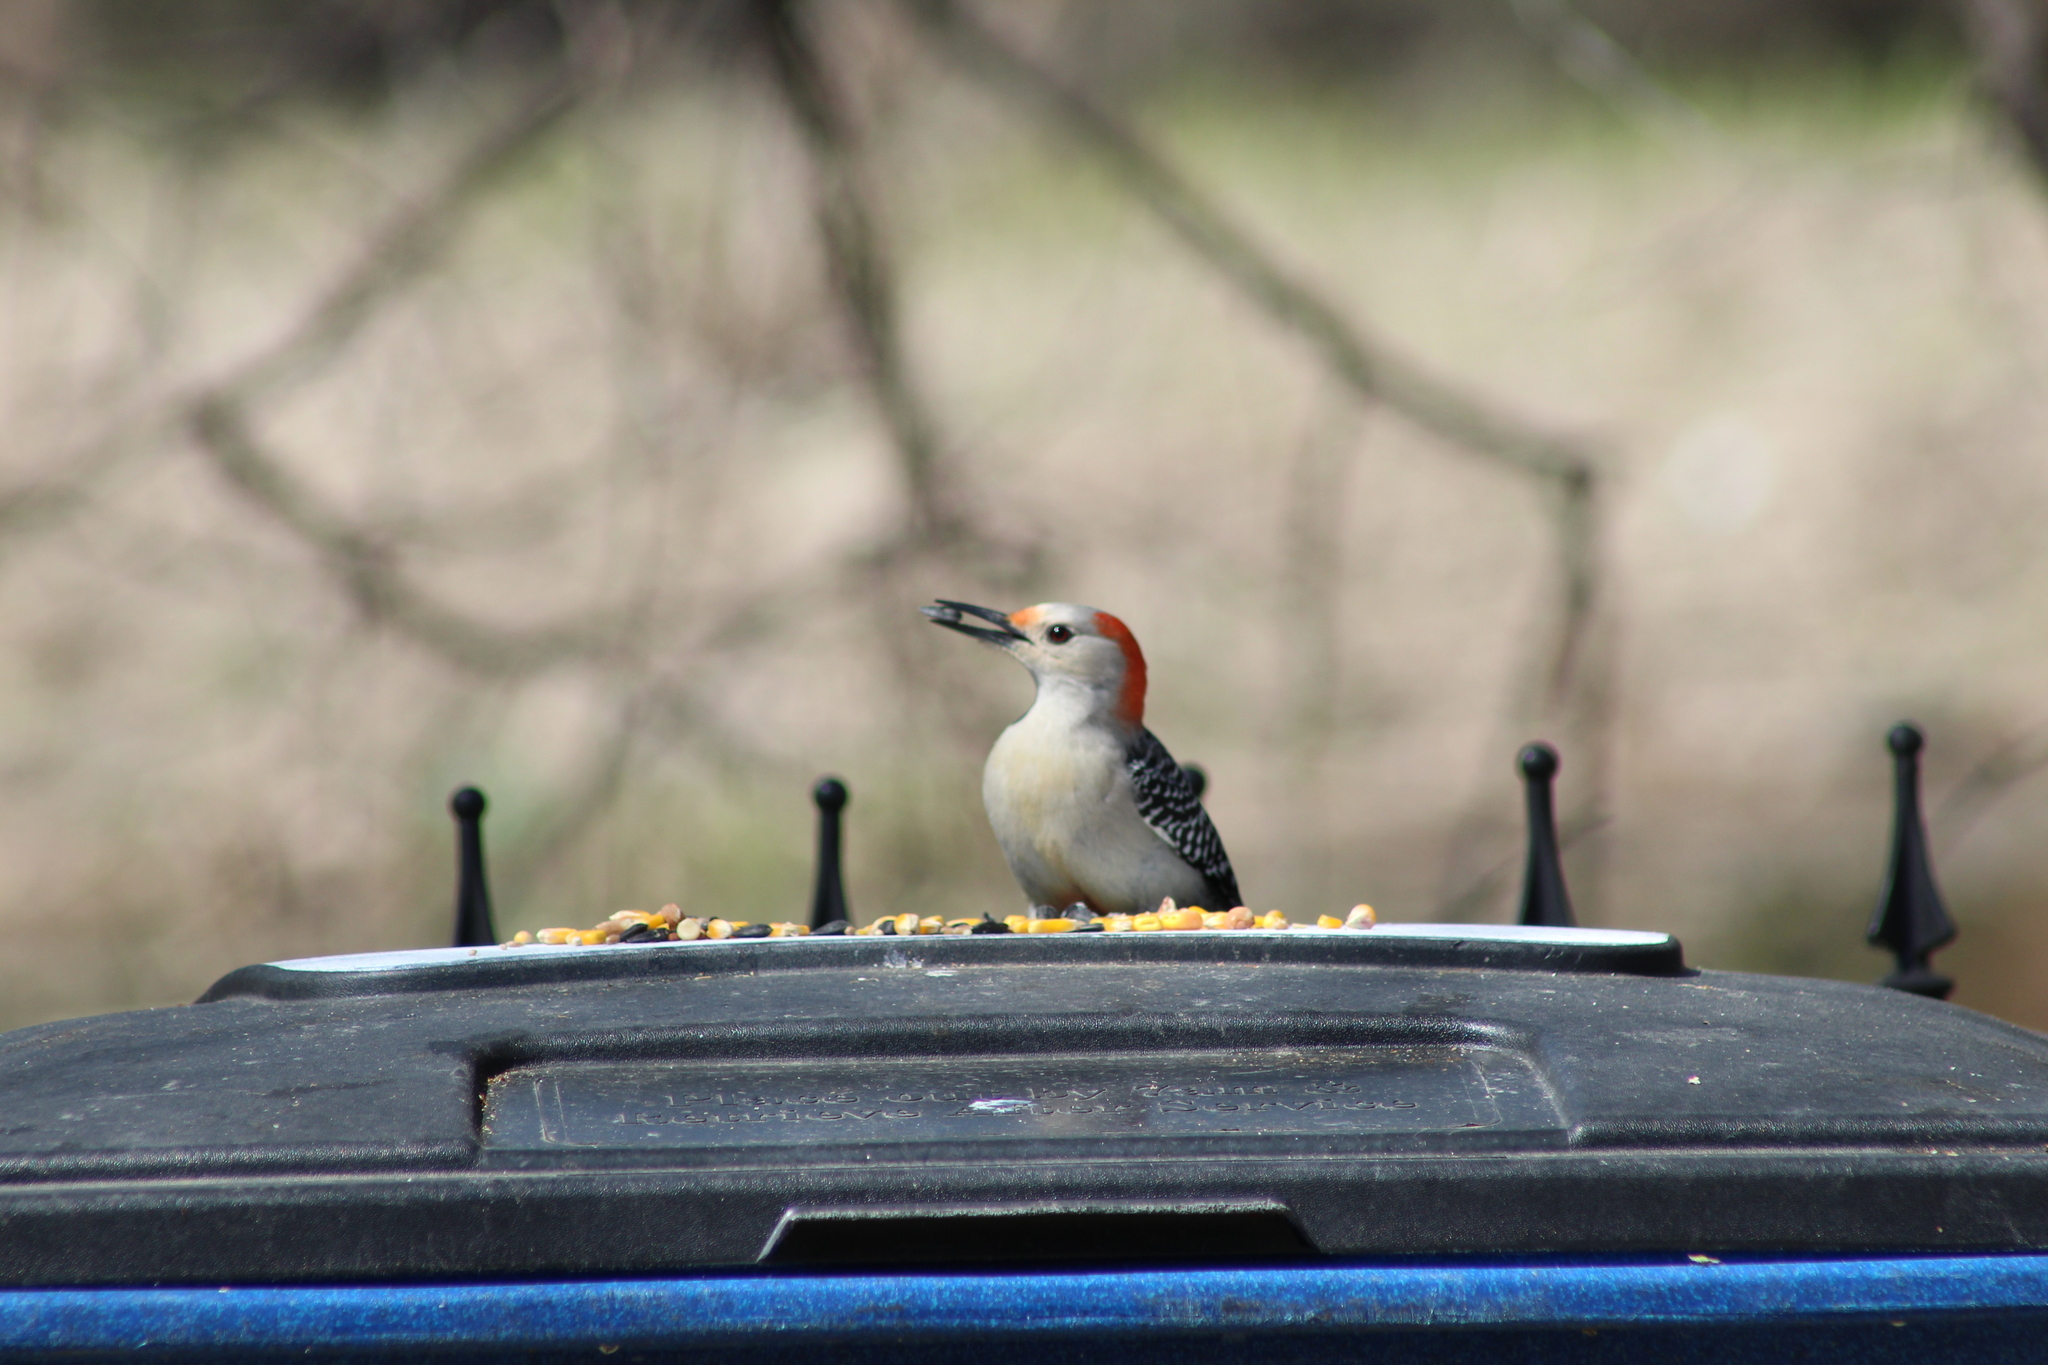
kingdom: Animalia
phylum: Chordata
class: Aves
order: Piciformes
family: Picidae
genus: Melanerpes
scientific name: Melanerpes carolinus
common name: Red-bellied woodpecker
